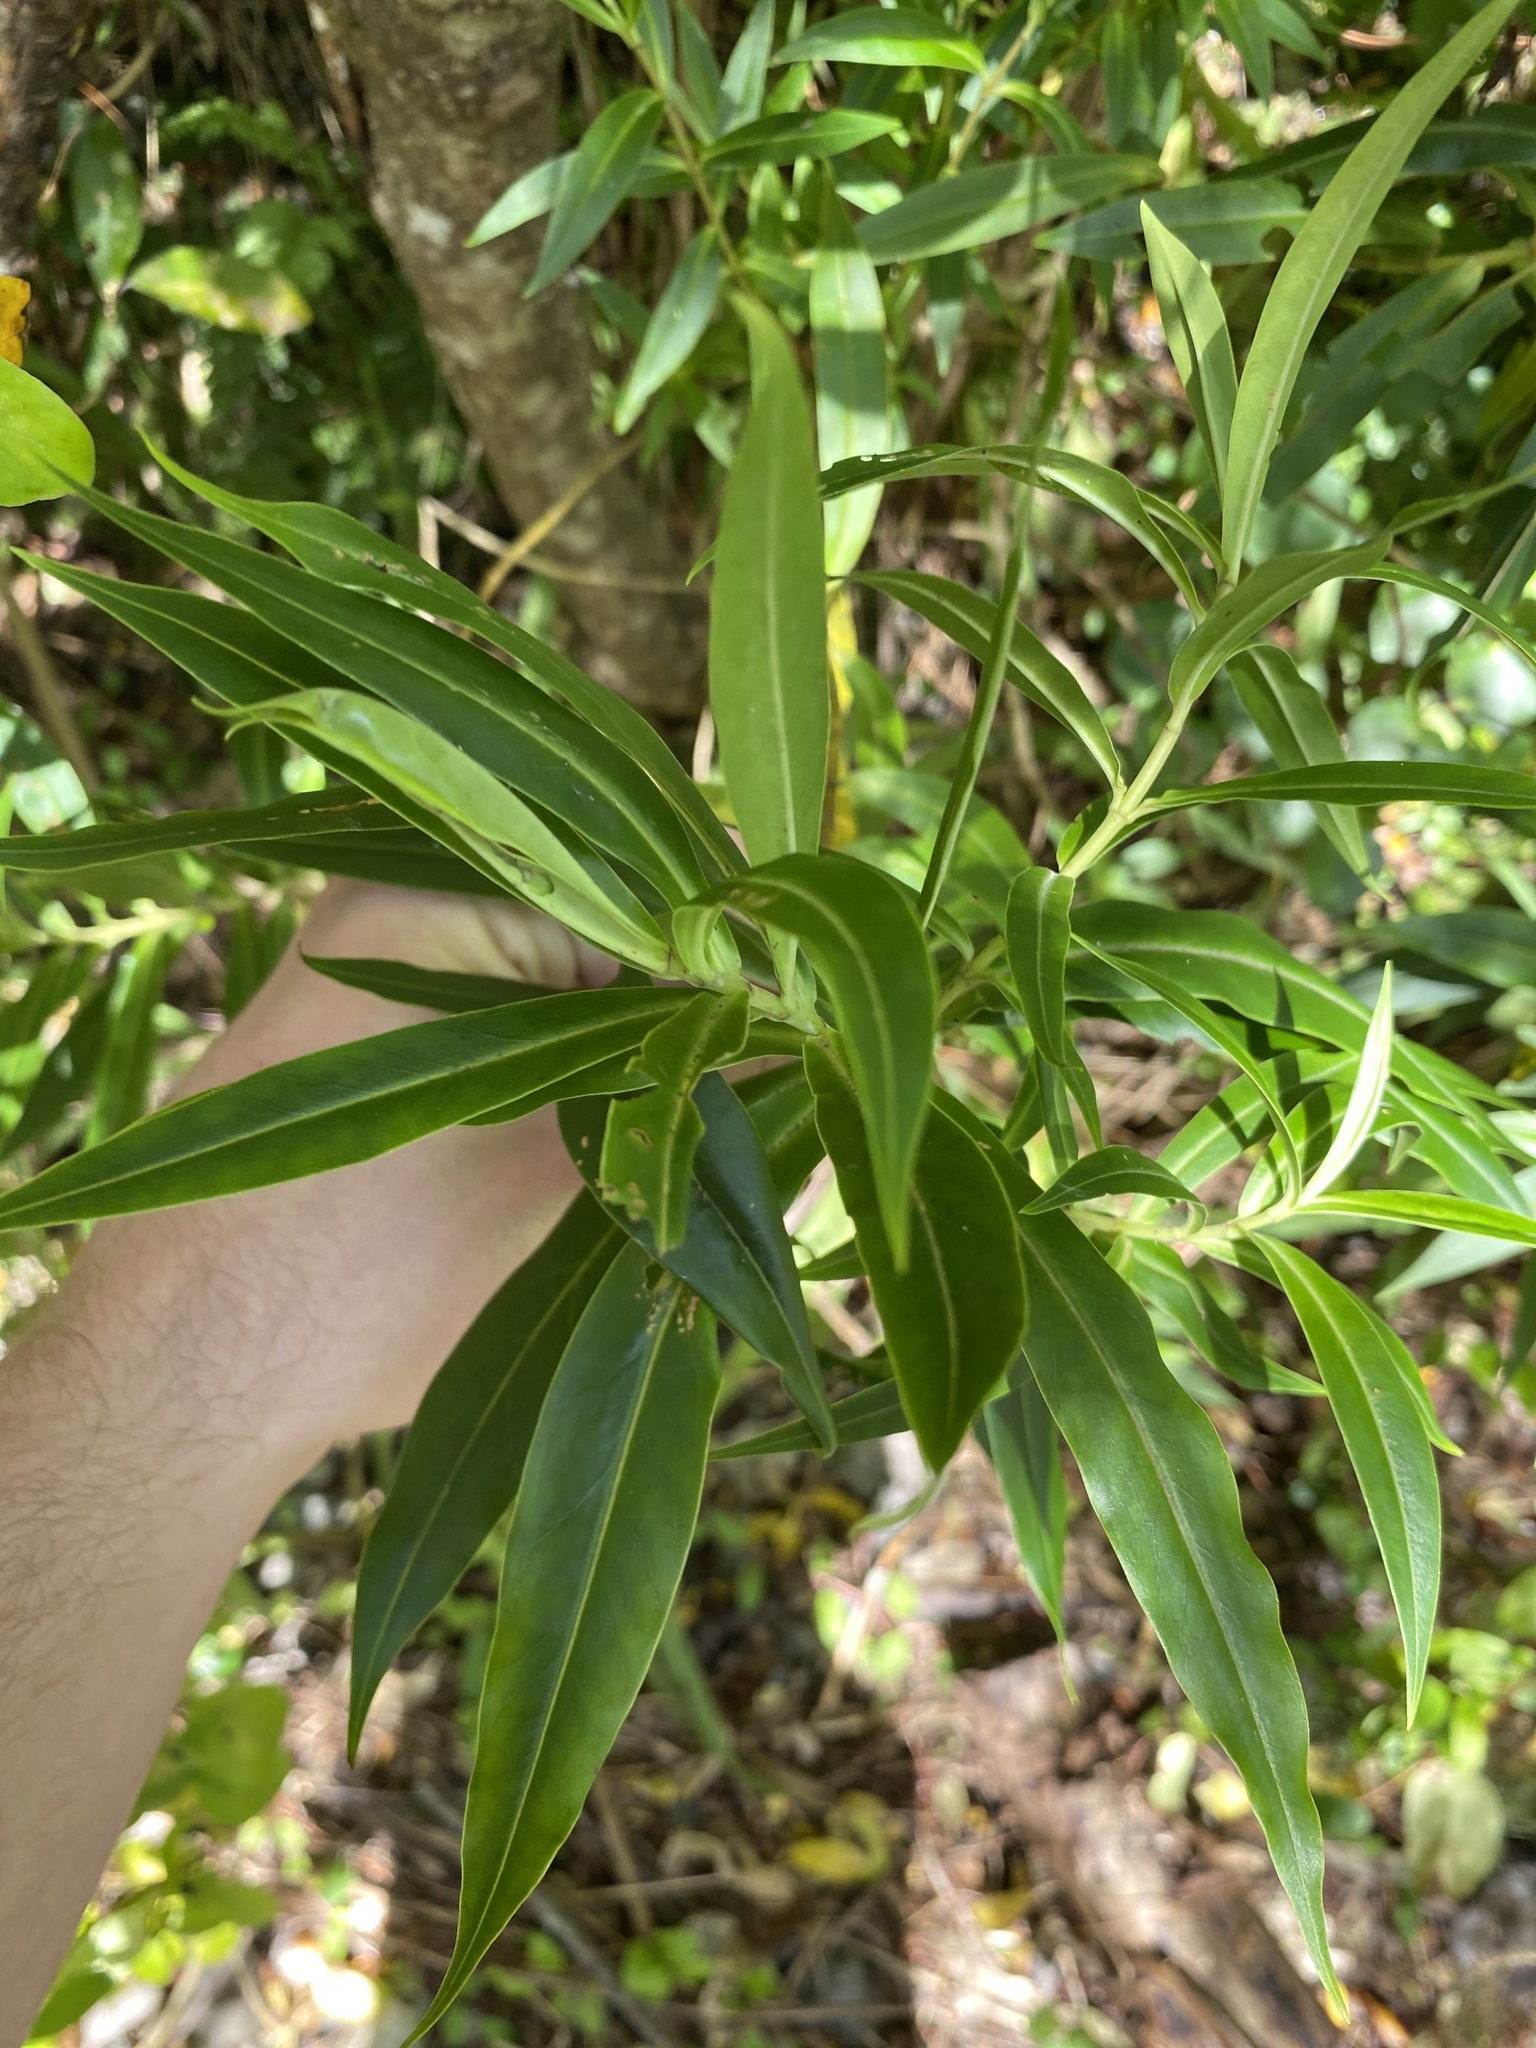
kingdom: Plantae
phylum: Tracheophyta
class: Magnoliopsida
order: Lamiales
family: Plantaginaceae
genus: Veronica
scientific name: Veronica stricta
